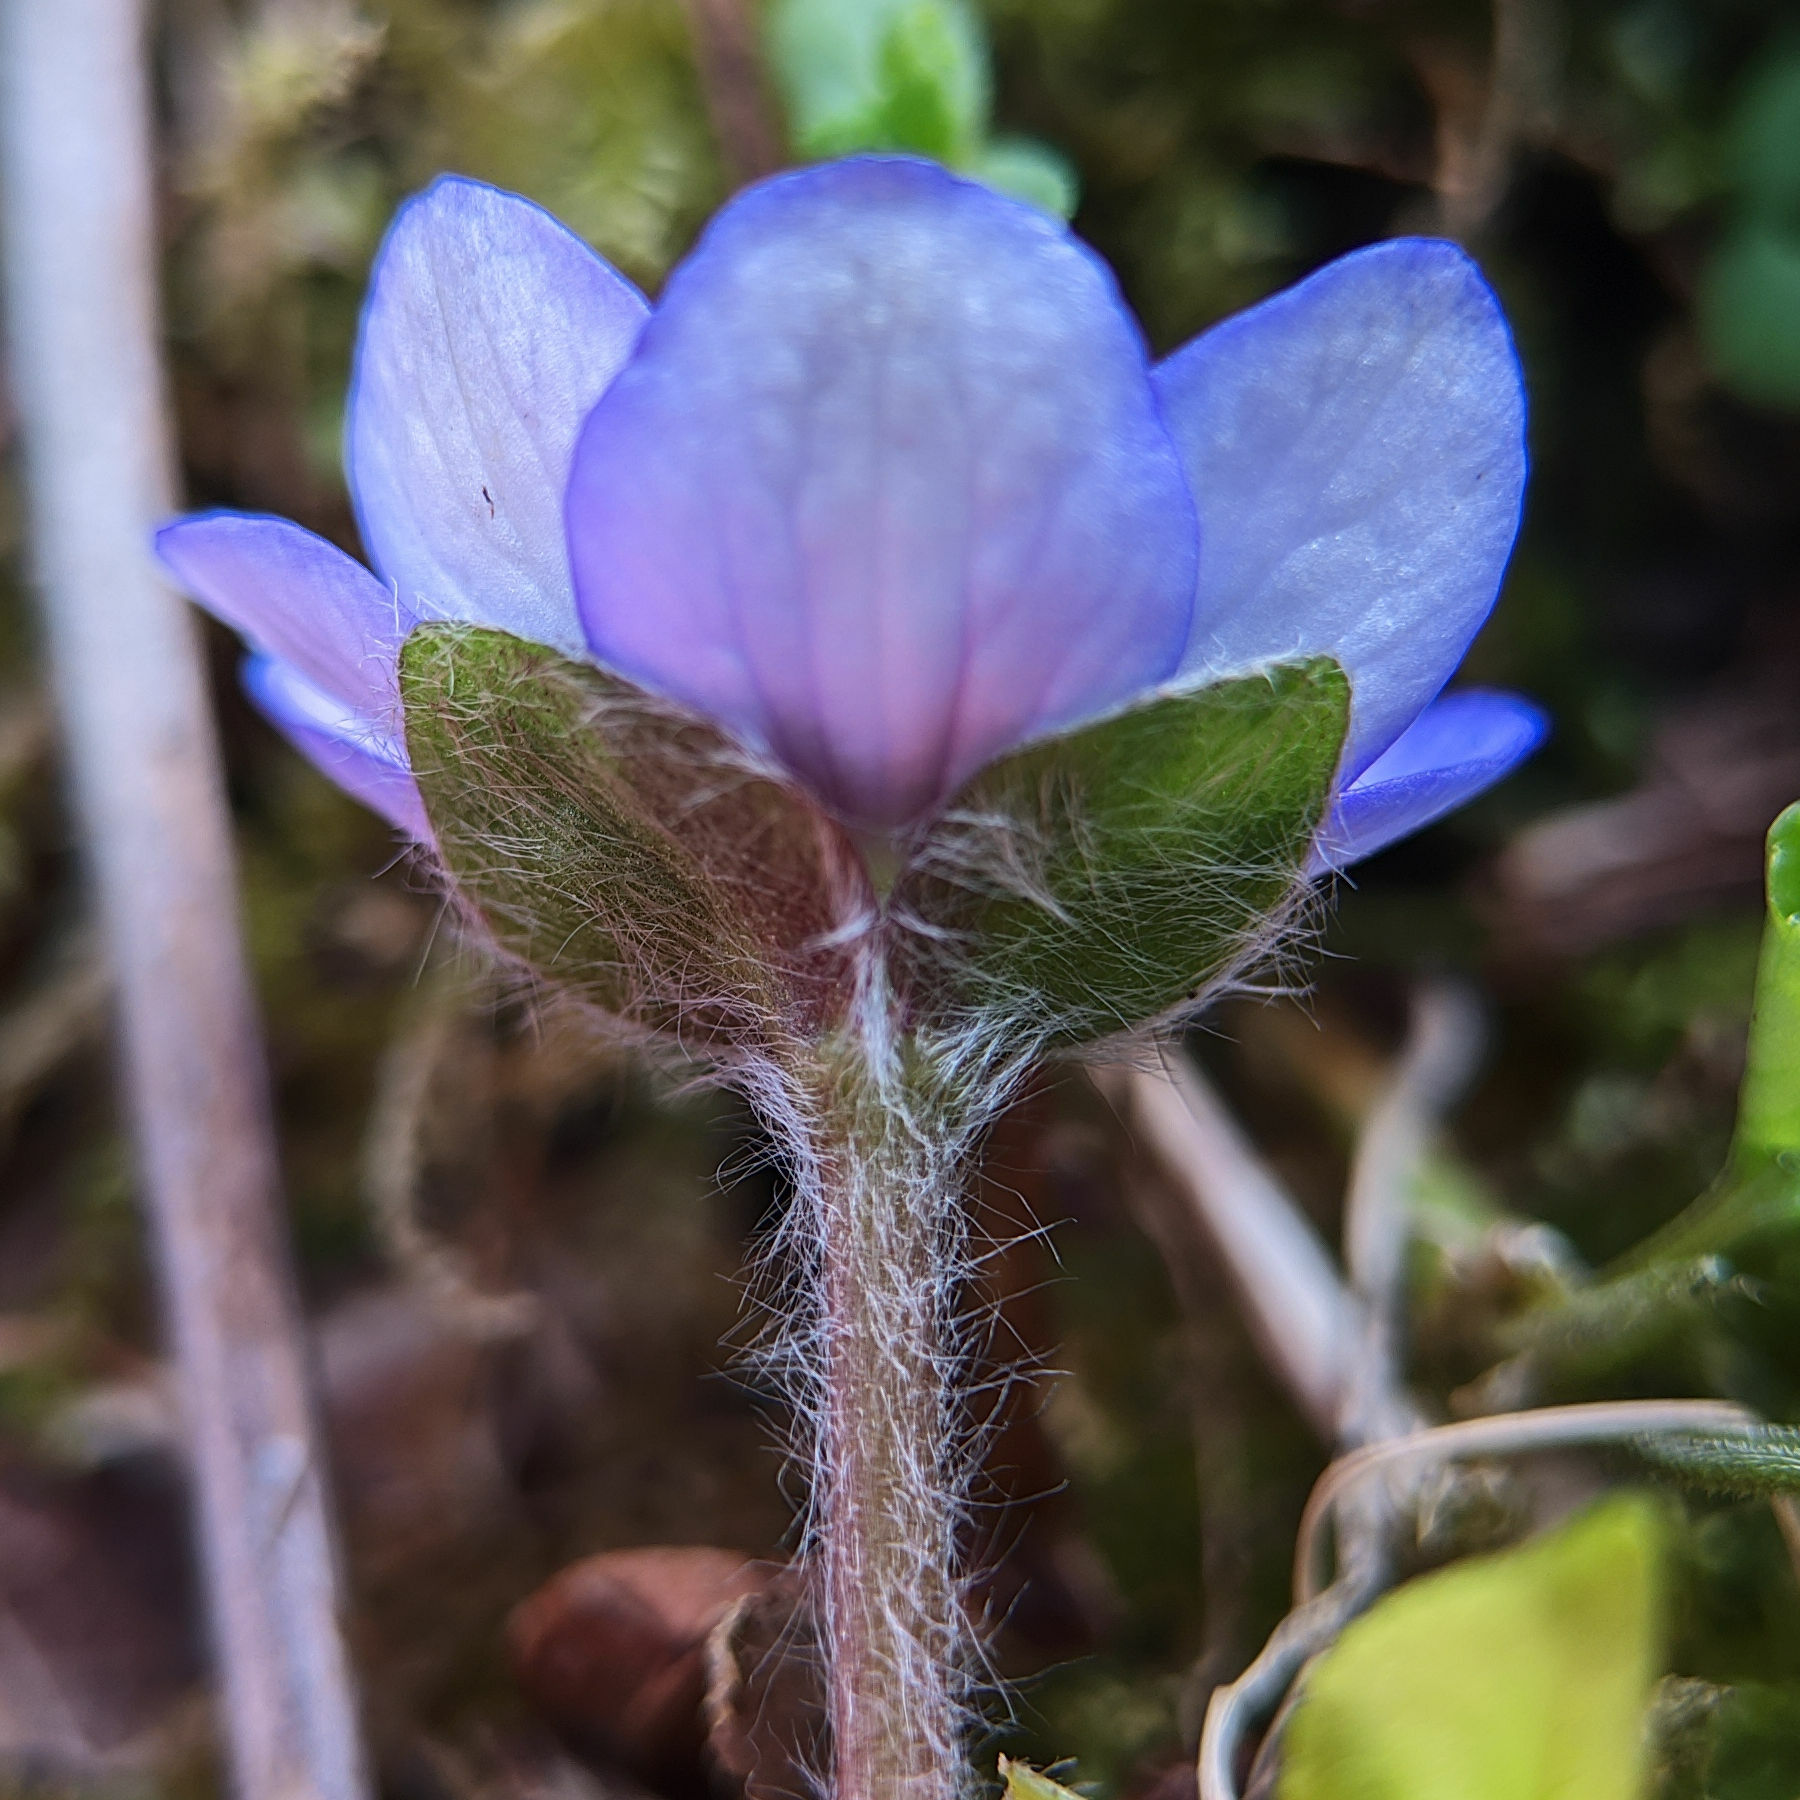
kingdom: Plantae
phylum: Tracheophyta
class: Magnoliopsida
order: Ranunculales
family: Ranunculaceae
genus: Hepatica
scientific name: Hepatica nobilis
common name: Liverleaf
